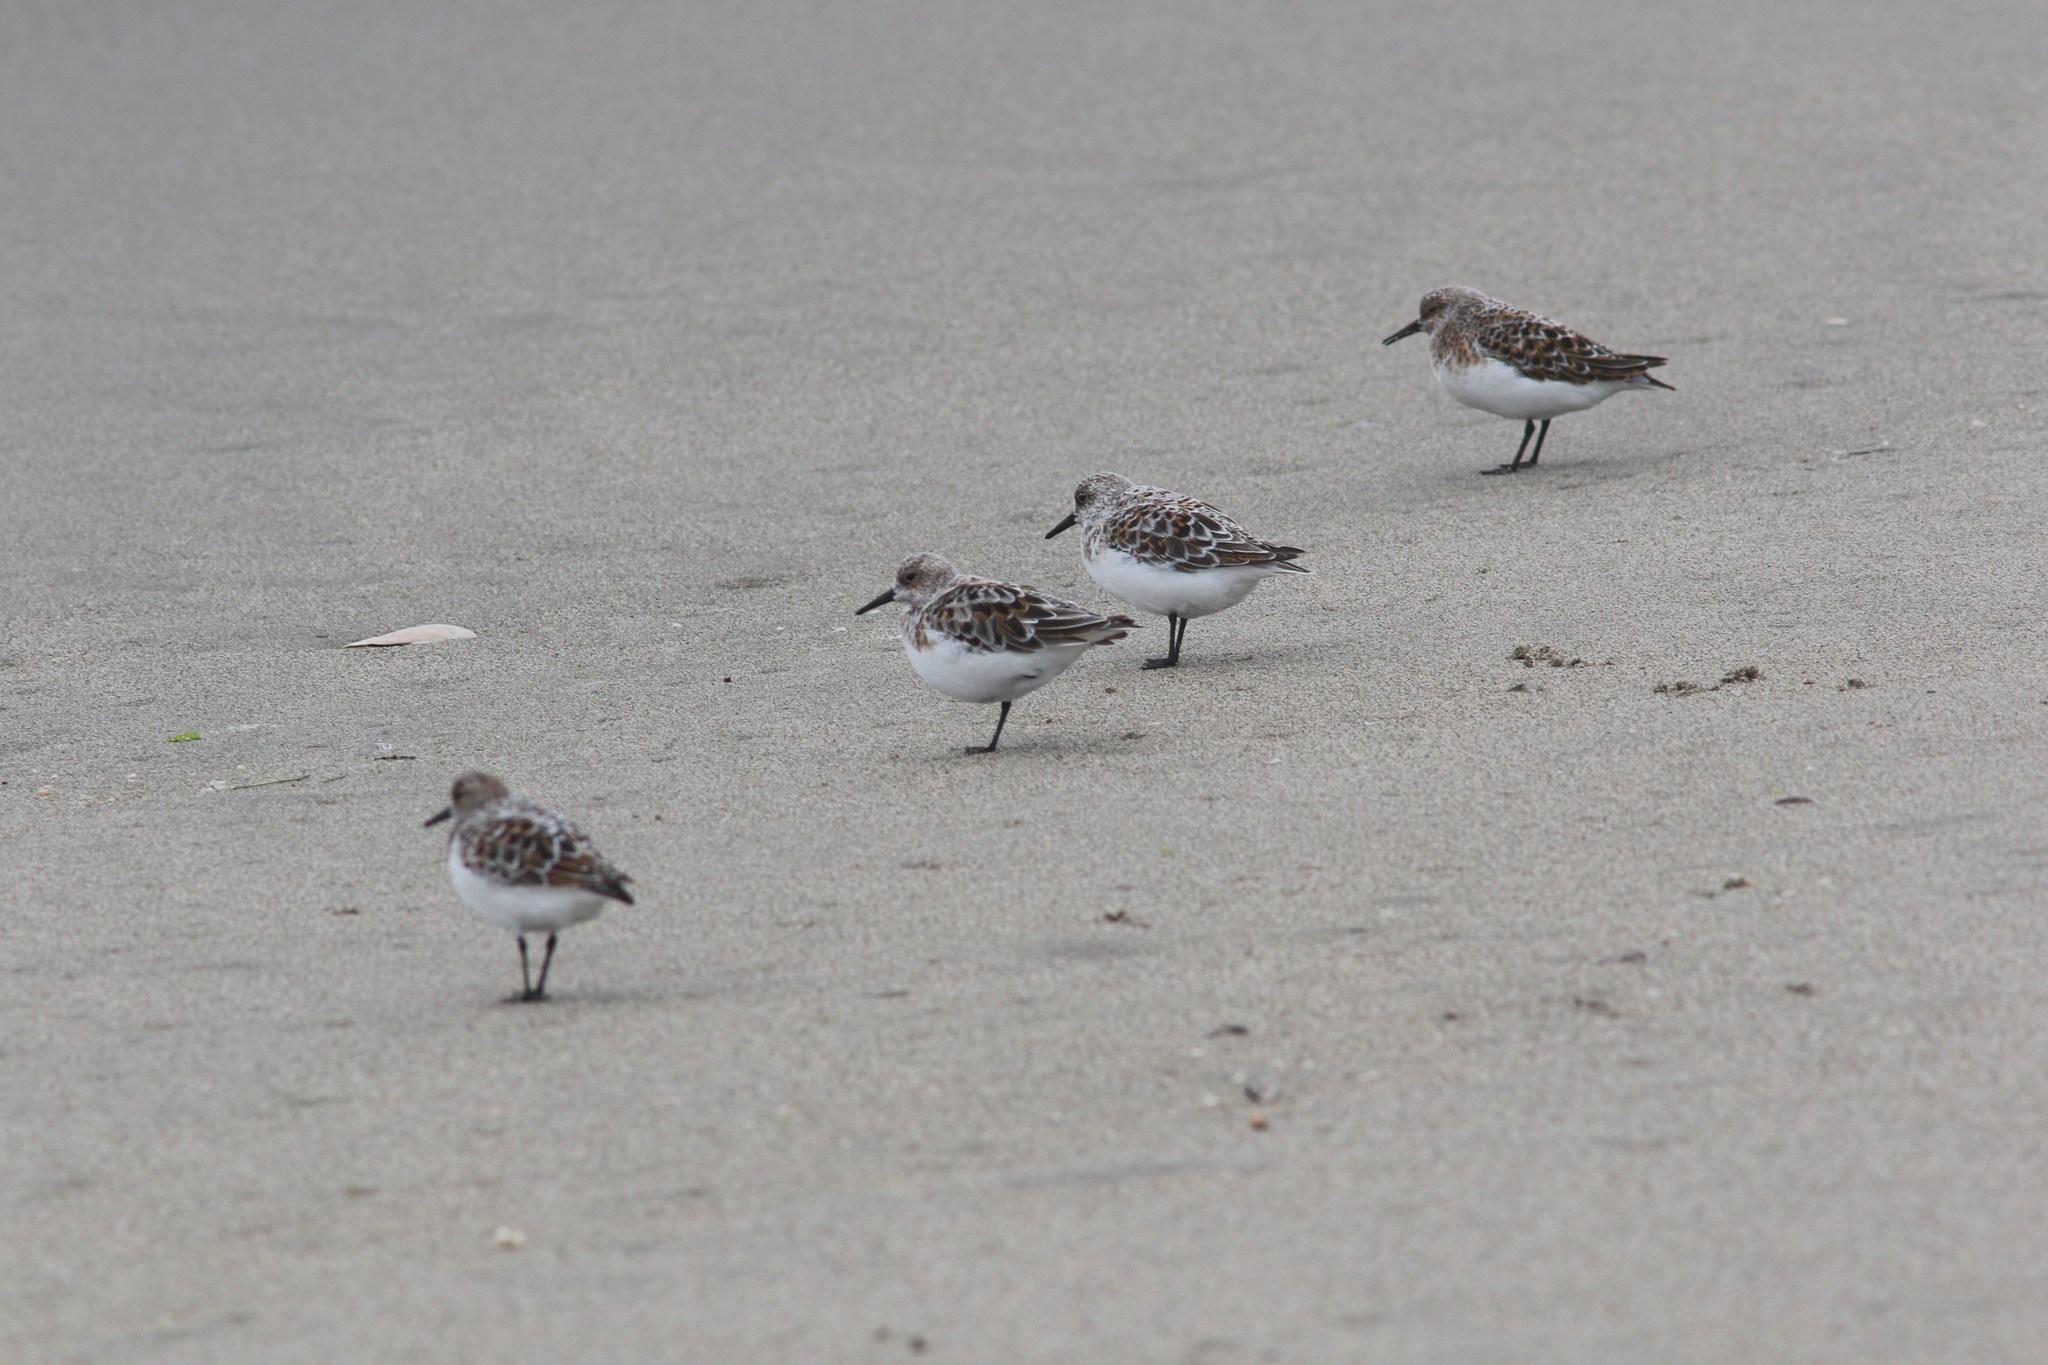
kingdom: Animalia
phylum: Chordata
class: Aves
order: Charadriiformes
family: Scolopacidae
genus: Calidris
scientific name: Calidris alba
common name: Sanderling
